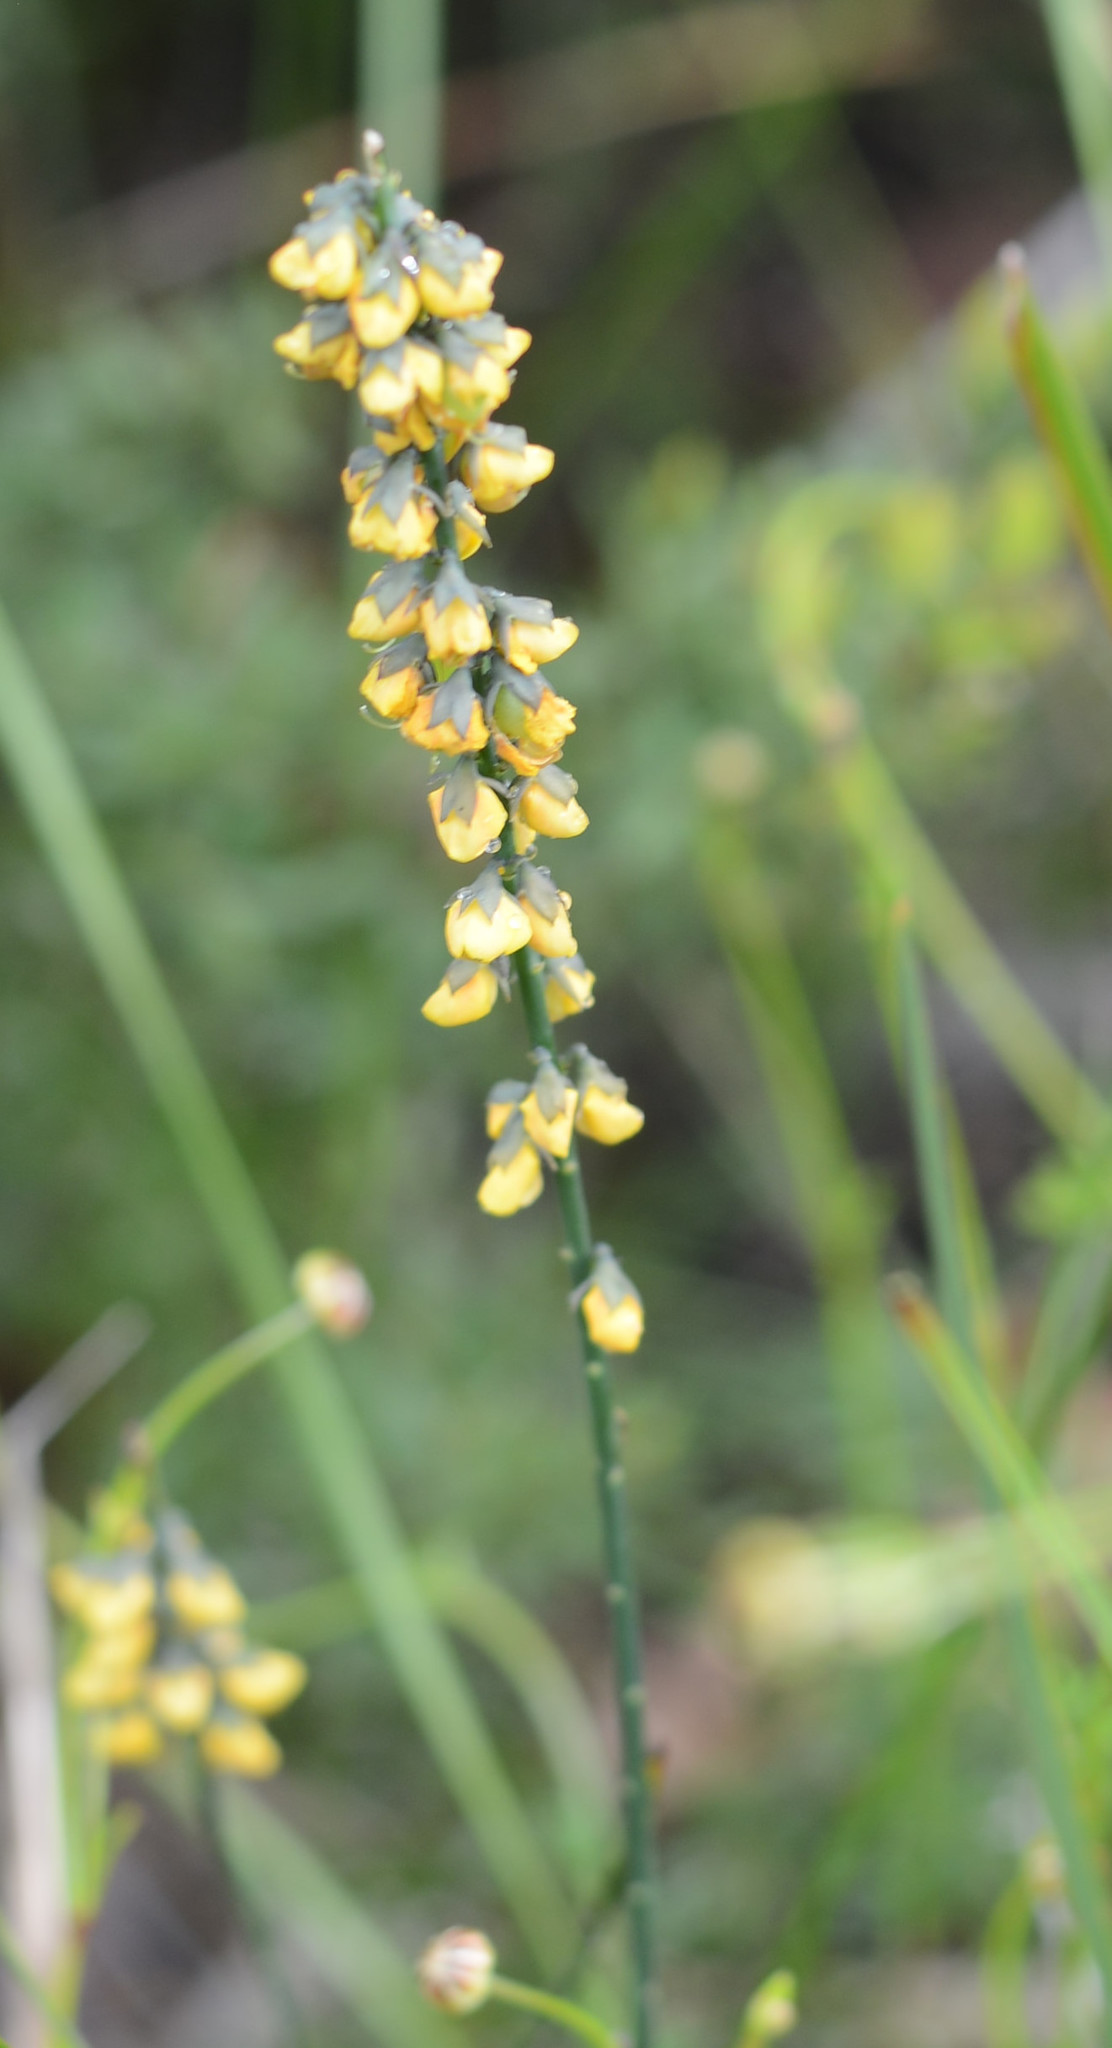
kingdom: Plantae
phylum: Tracheophyta
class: Magnoliopsida
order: Fabales
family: Fabaceae
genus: Sphaerolobium
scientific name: Sphaerolobium minus
